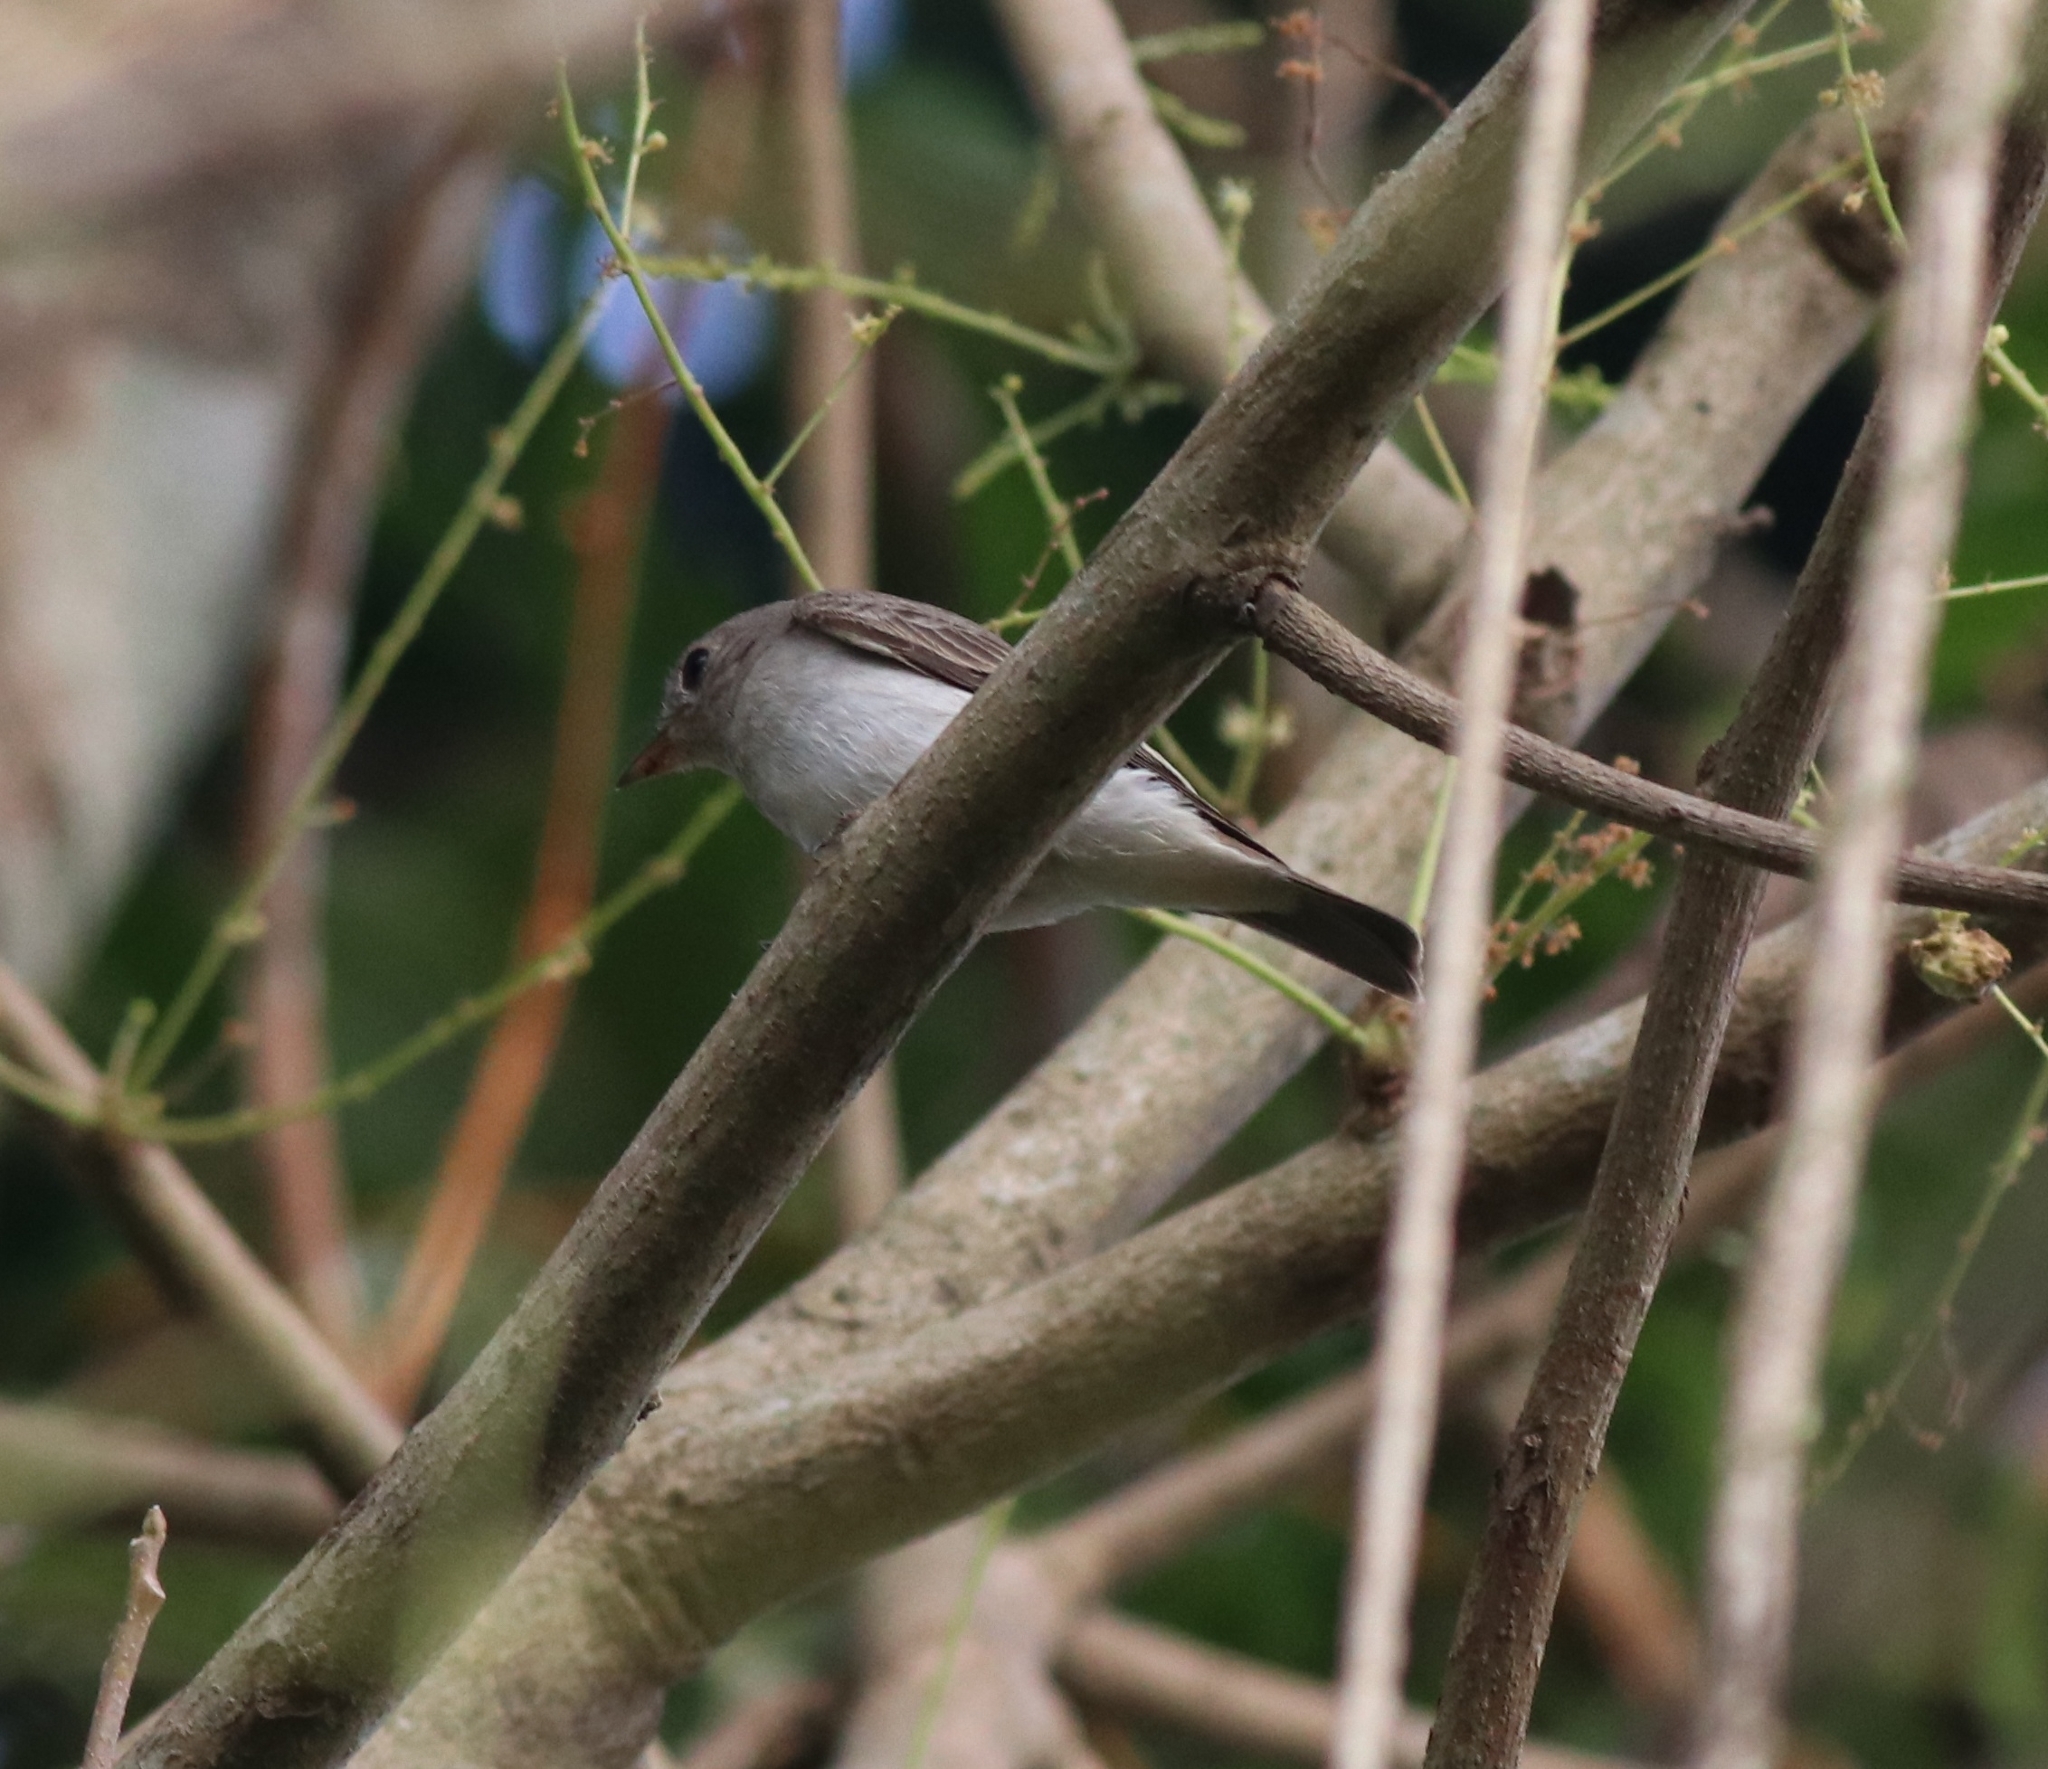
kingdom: Animalia
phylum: Chordata
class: Aves
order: Passeriformes
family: Muscicapidae
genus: Muscicapa
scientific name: Muscicapa latirostris
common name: Asian brown flycatcher
